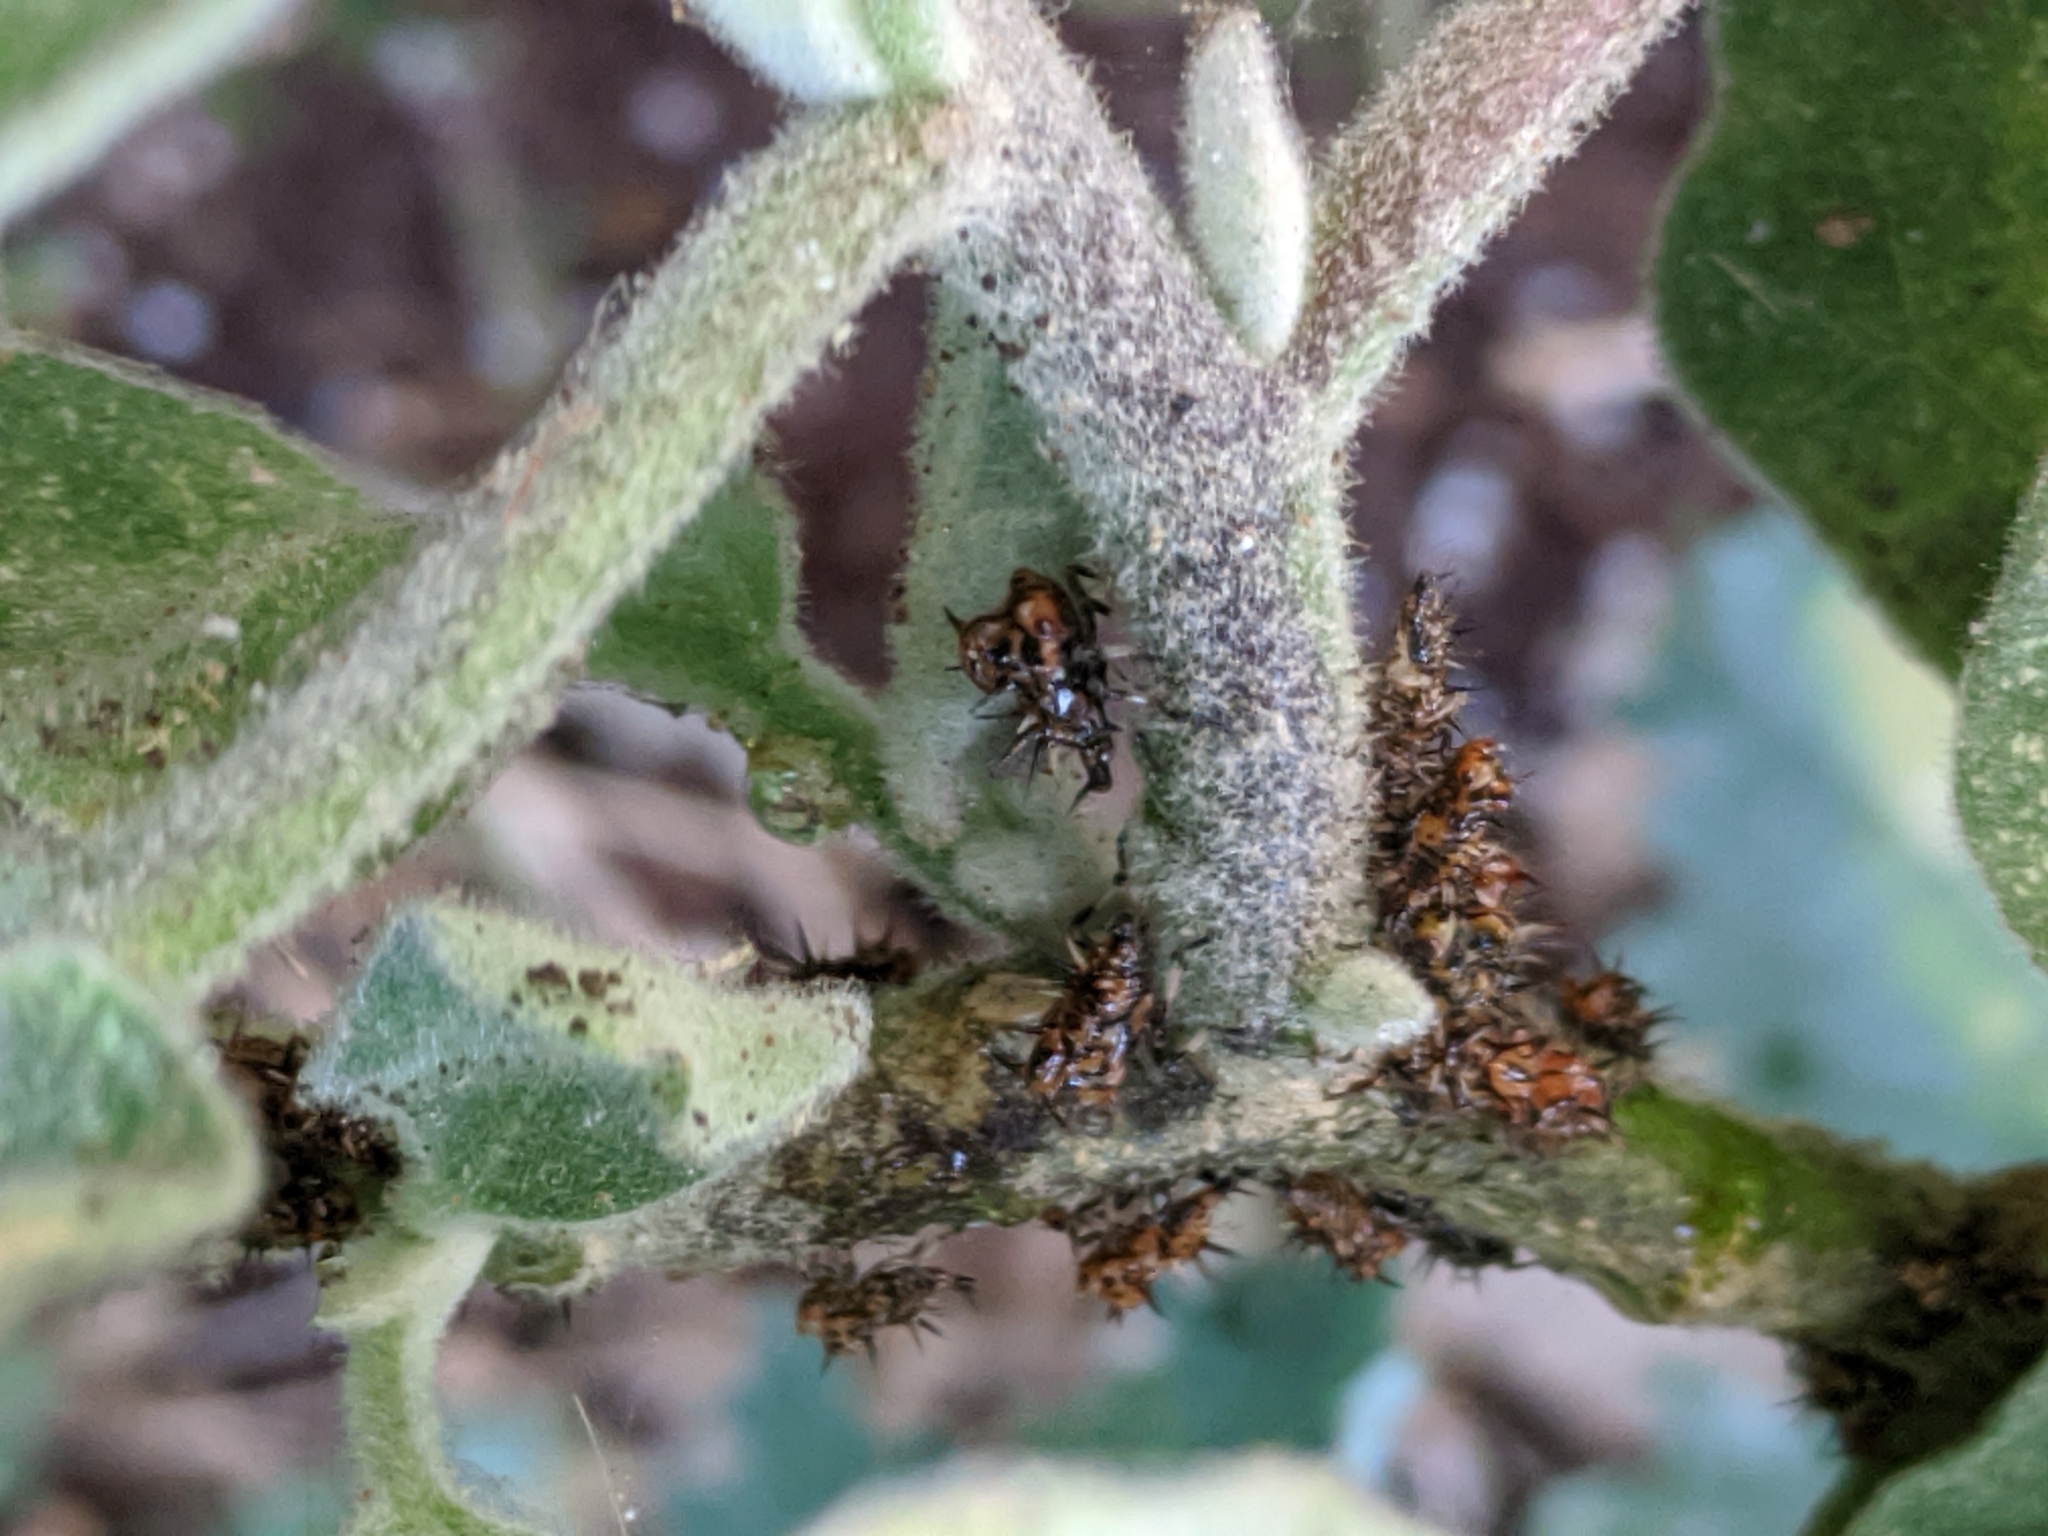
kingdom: Animalia
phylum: Arthropoda
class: Insecta
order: Hemiptera
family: Membracidae
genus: Antianthe
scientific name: Antianthe expansa
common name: Keeled tree hopper
